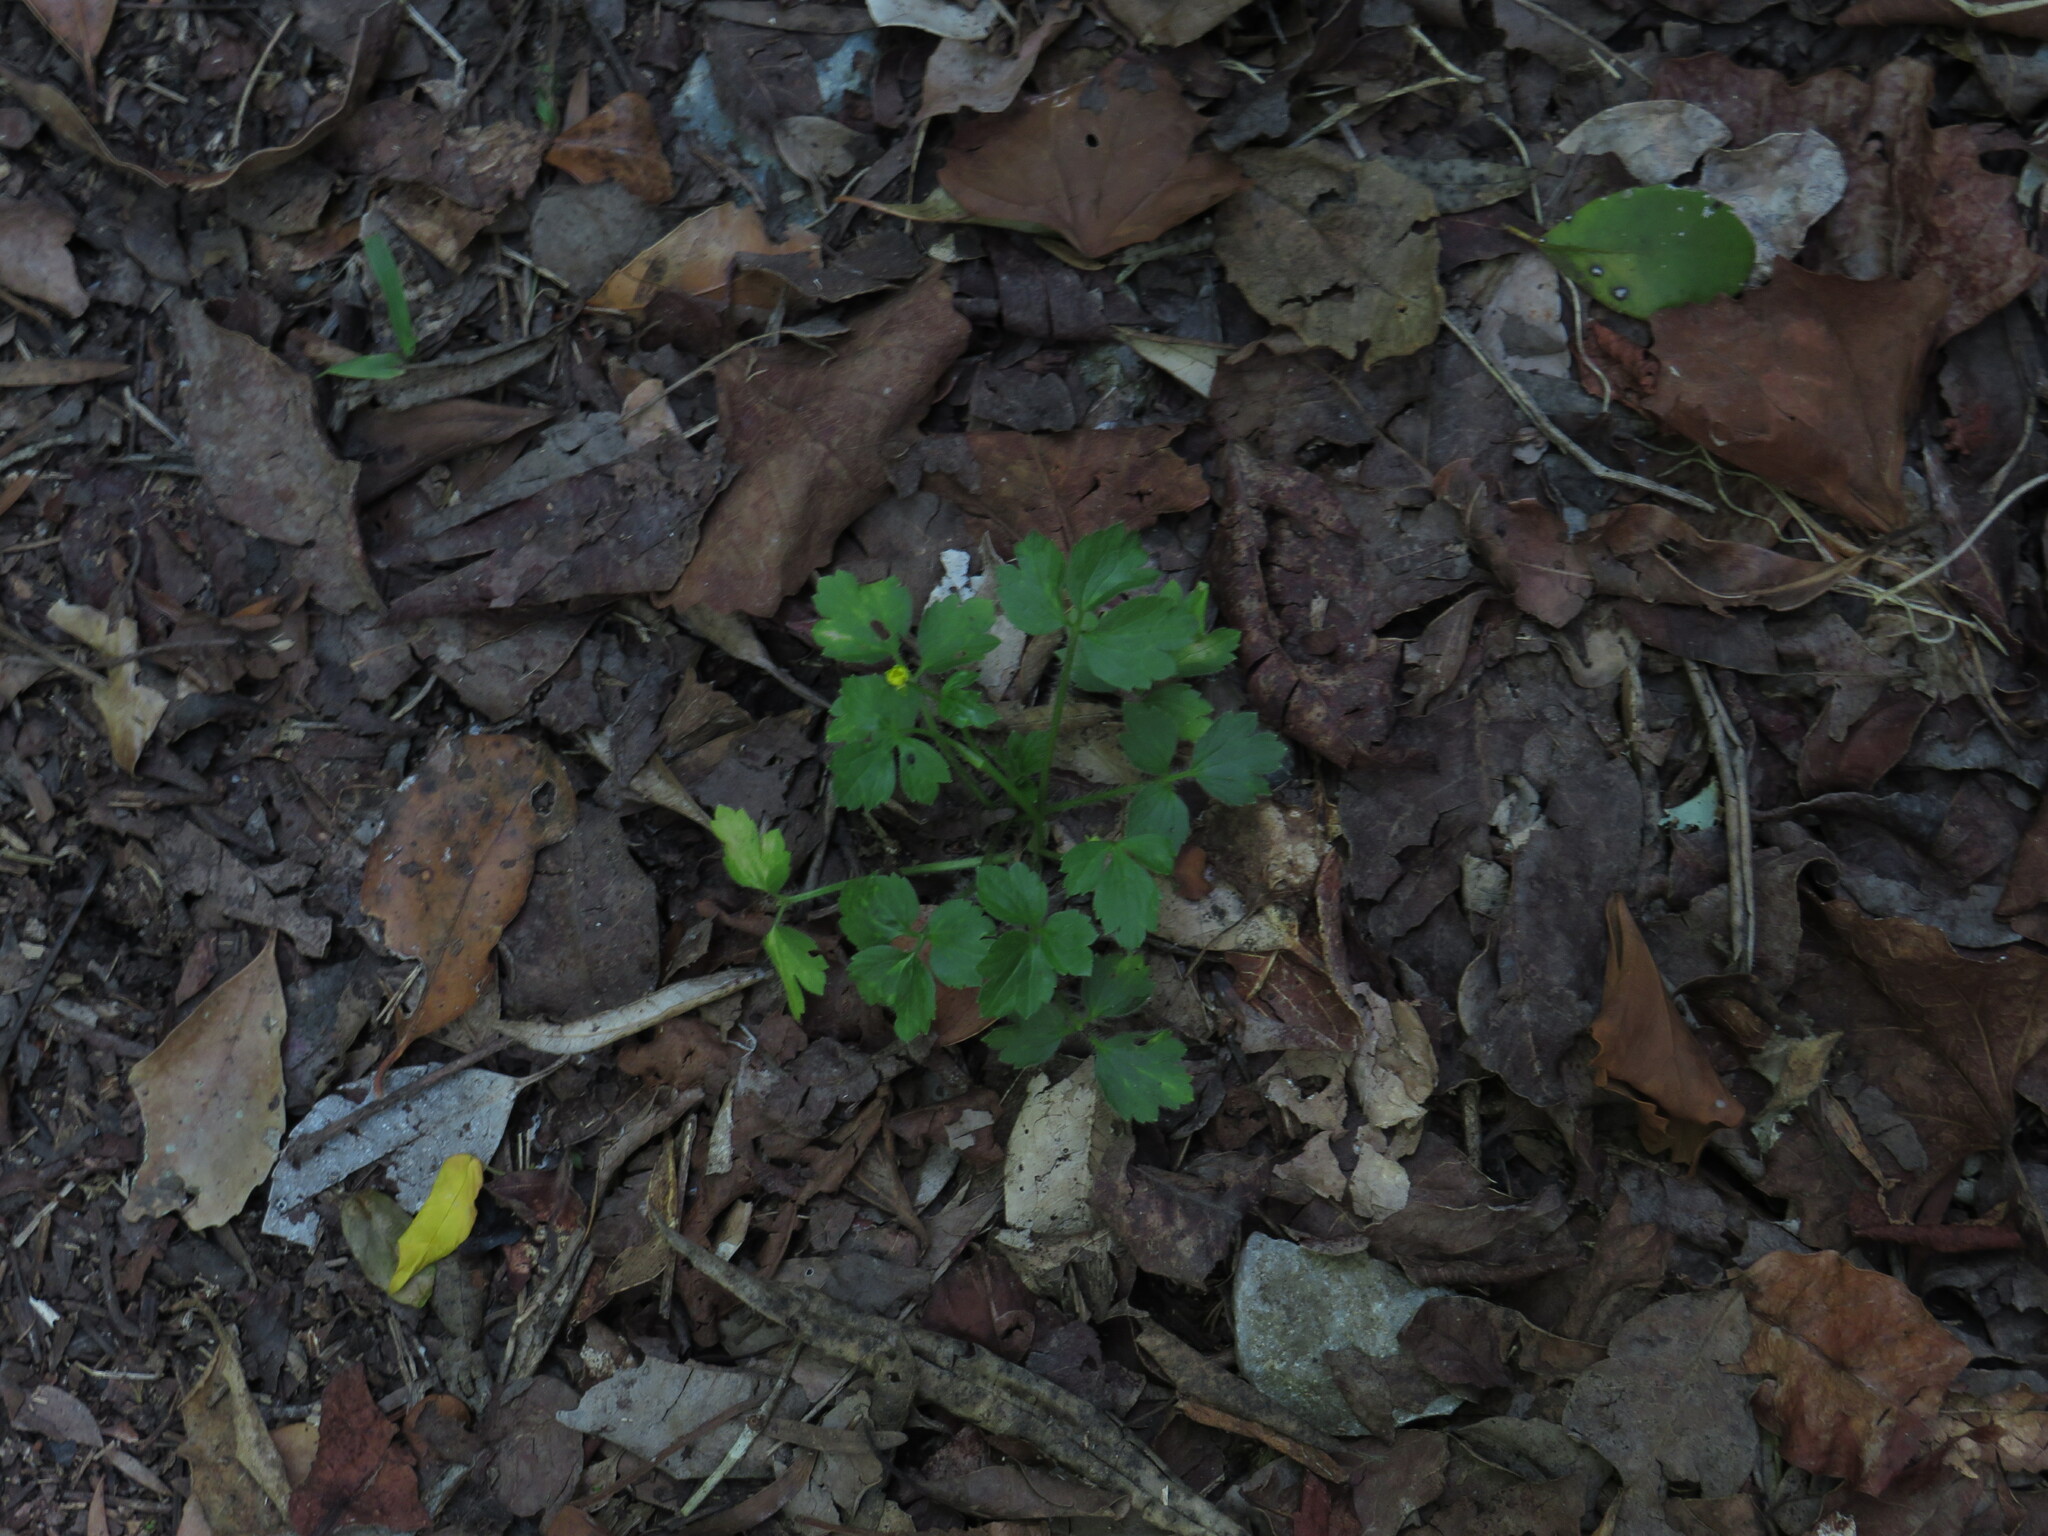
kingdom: Plantae
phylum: Tracheophyta
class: Magnoliopsida
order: Ranunculales
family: Ranunculaceae
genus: Ranunculus
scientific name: Ranunculus multifidus
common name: Wild buttercup
